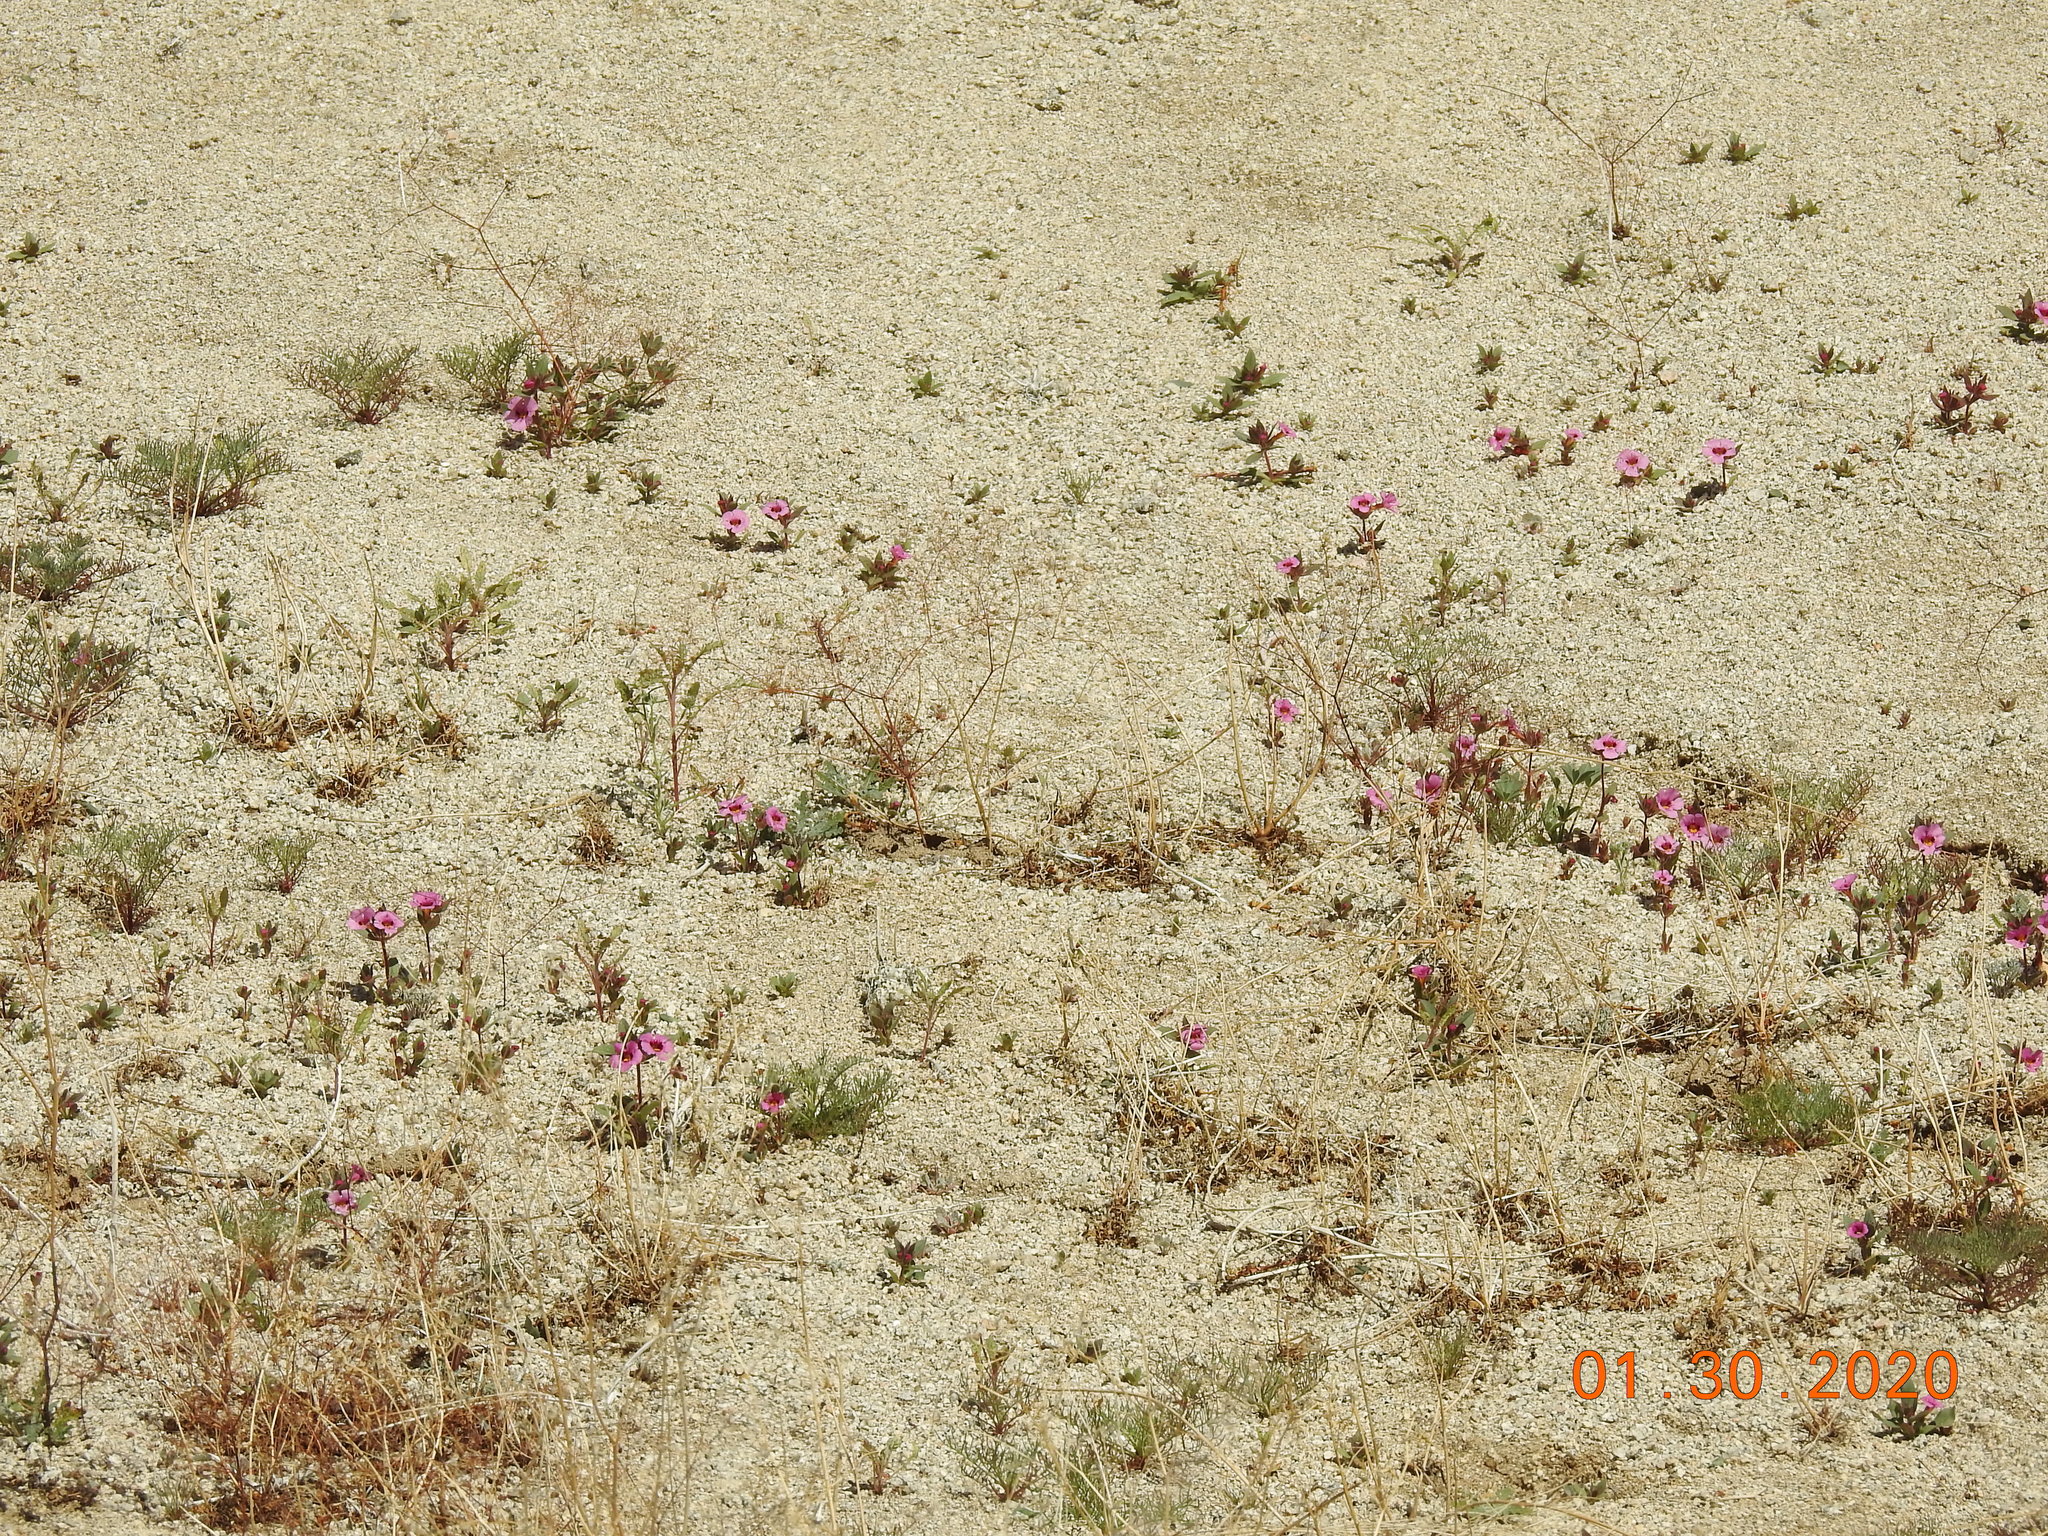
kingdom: Plantae
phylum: Tracheophyta
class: Magnoliopsida
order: Lamiales
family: Phrymaceae
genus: Diplacus
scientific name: Diplacus bigelovii
